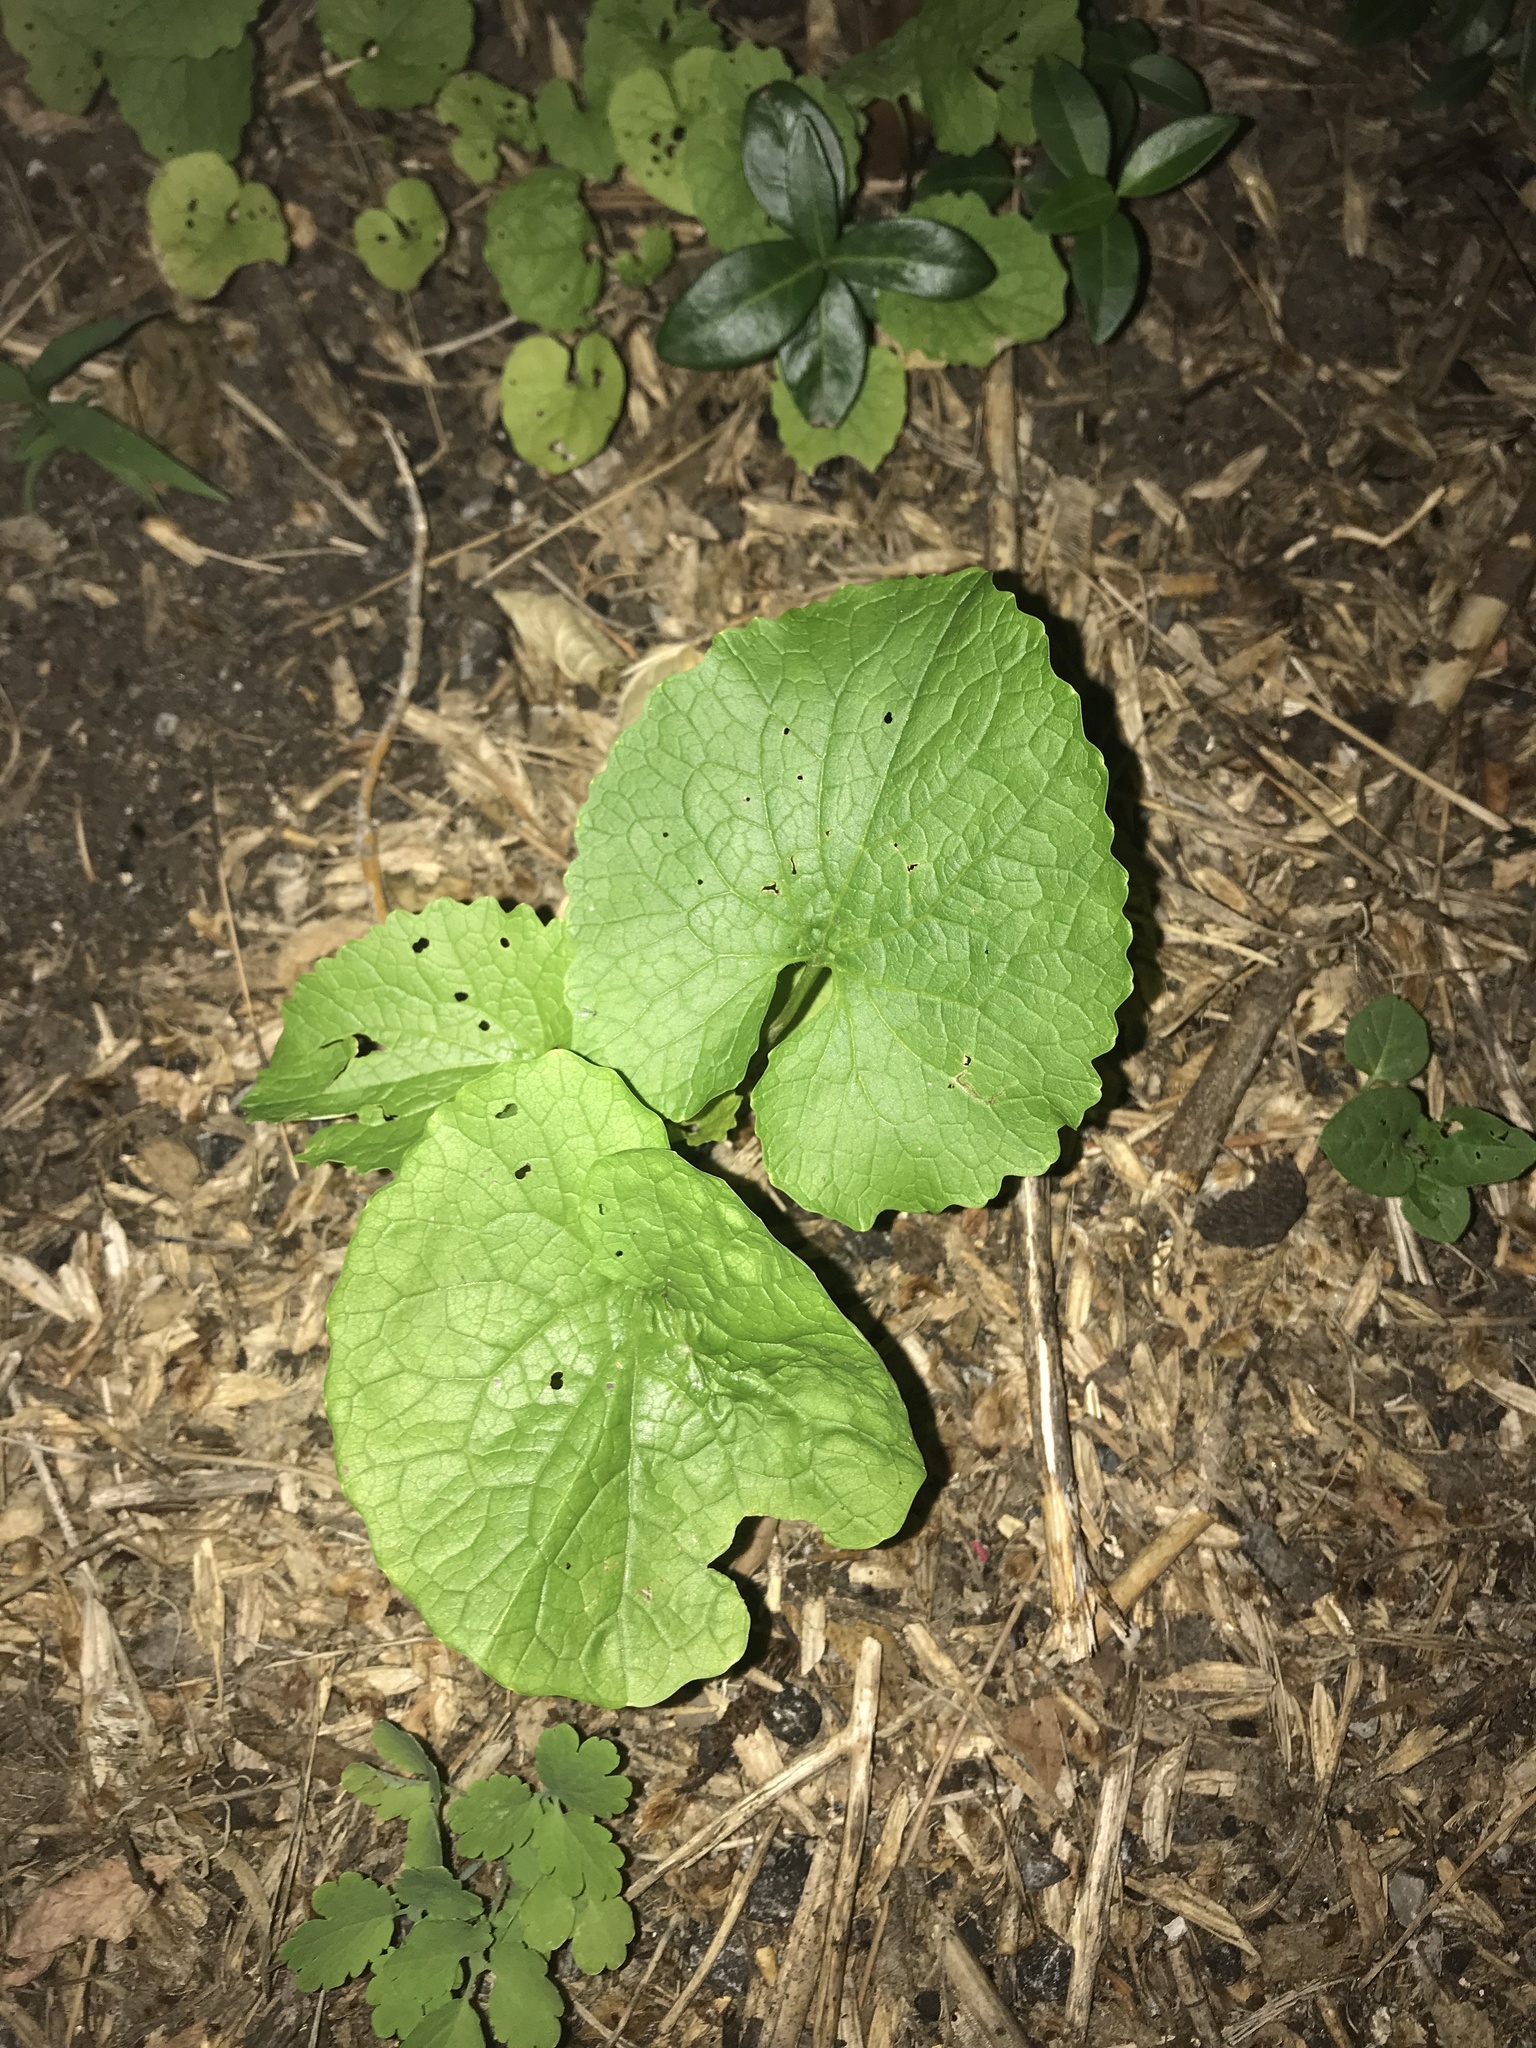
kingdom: Plantae
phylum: Tracheophyta
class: Magnoliopsida
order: Brassicales
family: Brassicaceae
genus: Alliaria
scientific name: Alliaria petiolata
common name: Garlic mustard
